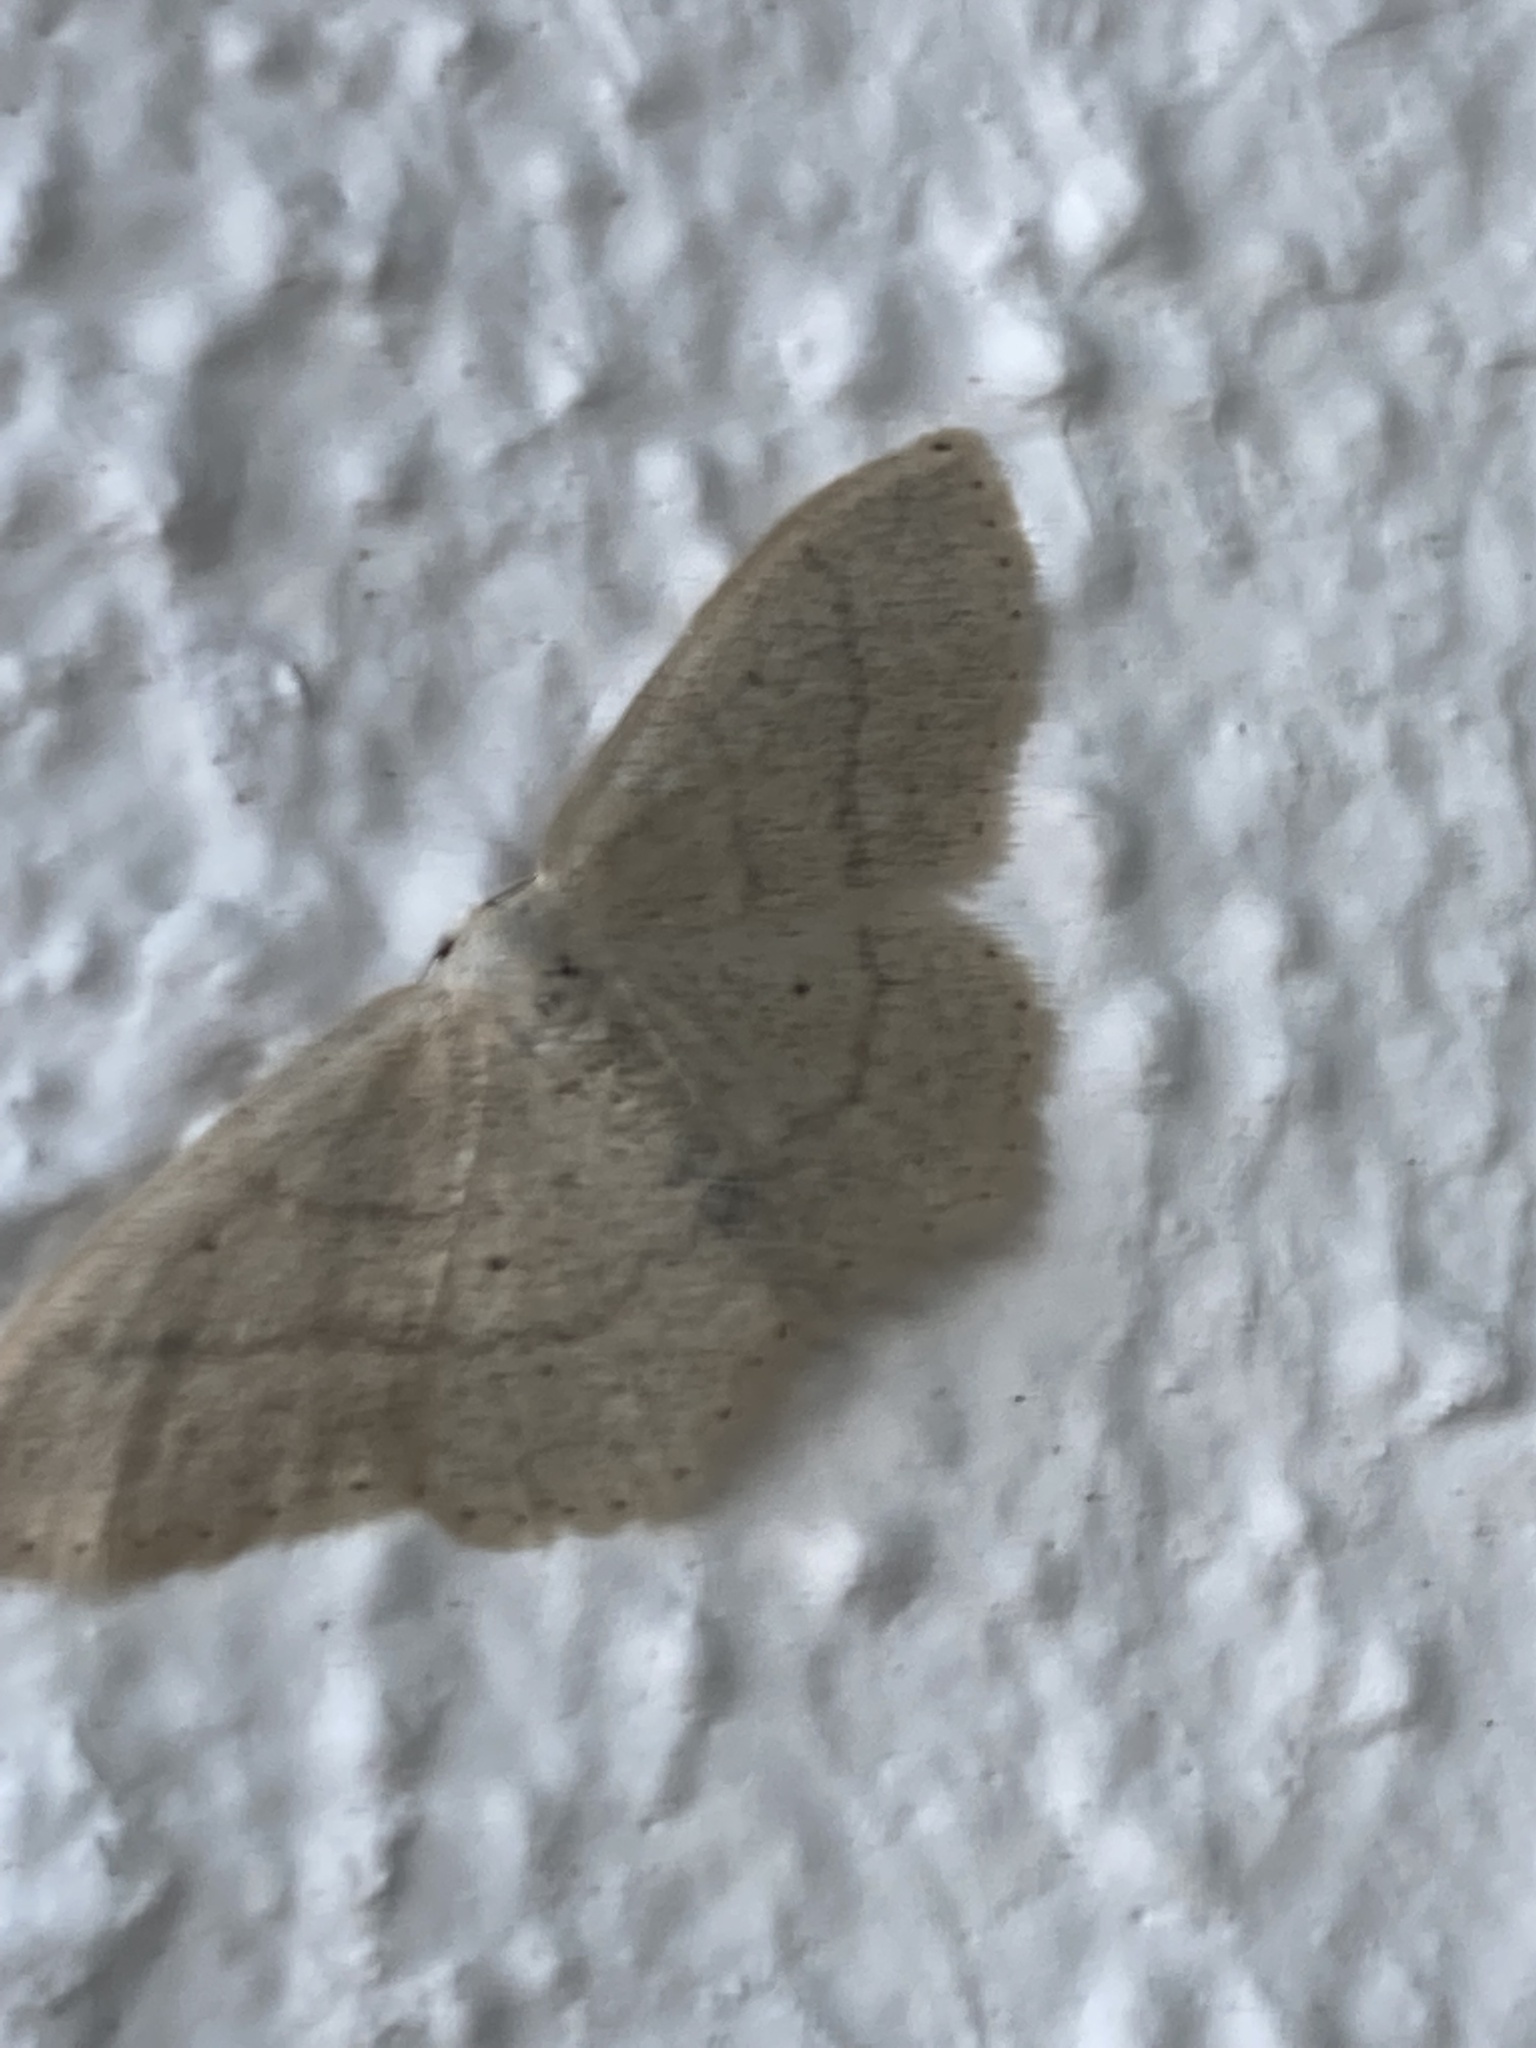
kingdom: Animalia
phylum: Arthropoda
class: Insecta
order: Lepidoptera
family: Geometridae
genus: Idaea
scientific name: Idaea eugeniata
